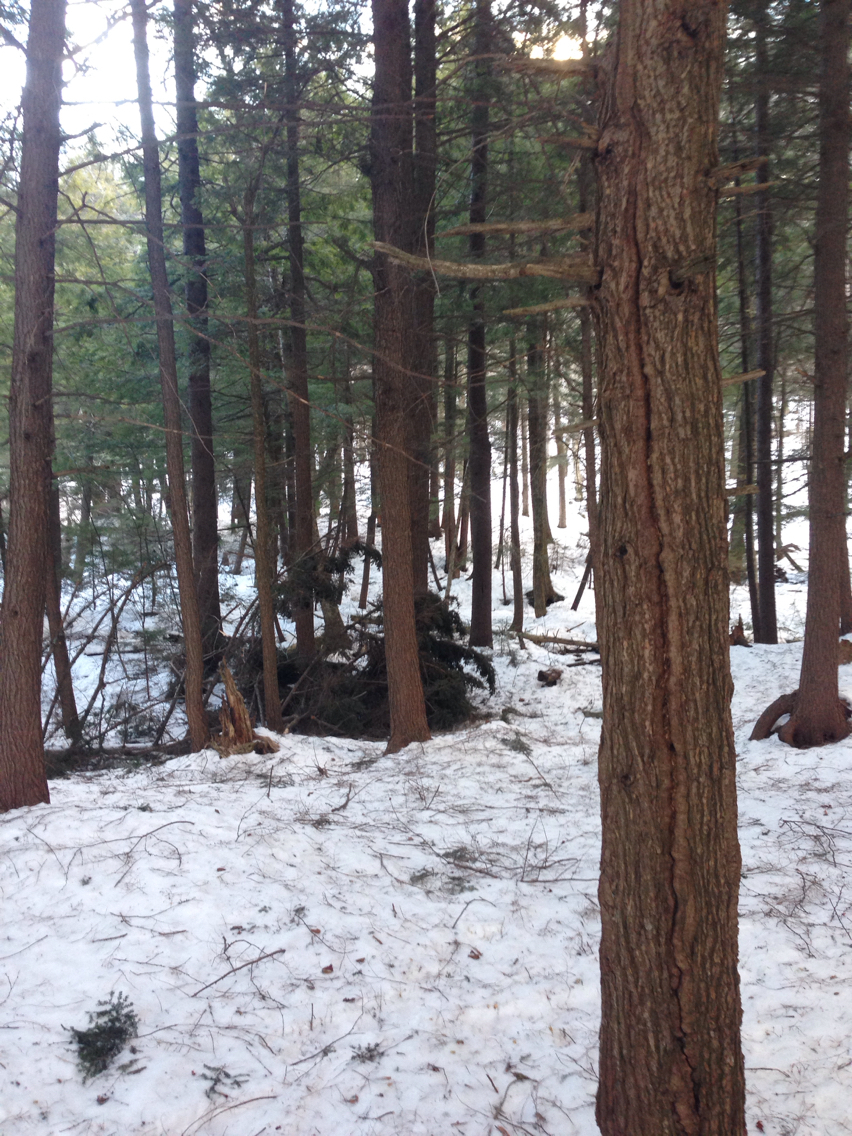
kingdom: Plantae
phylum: Tracheophyta
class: Pinopsida
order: Pinales
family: Pinaceae
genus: Tsuga
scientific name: Tsuga canadensis
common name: Eastern hemlock
